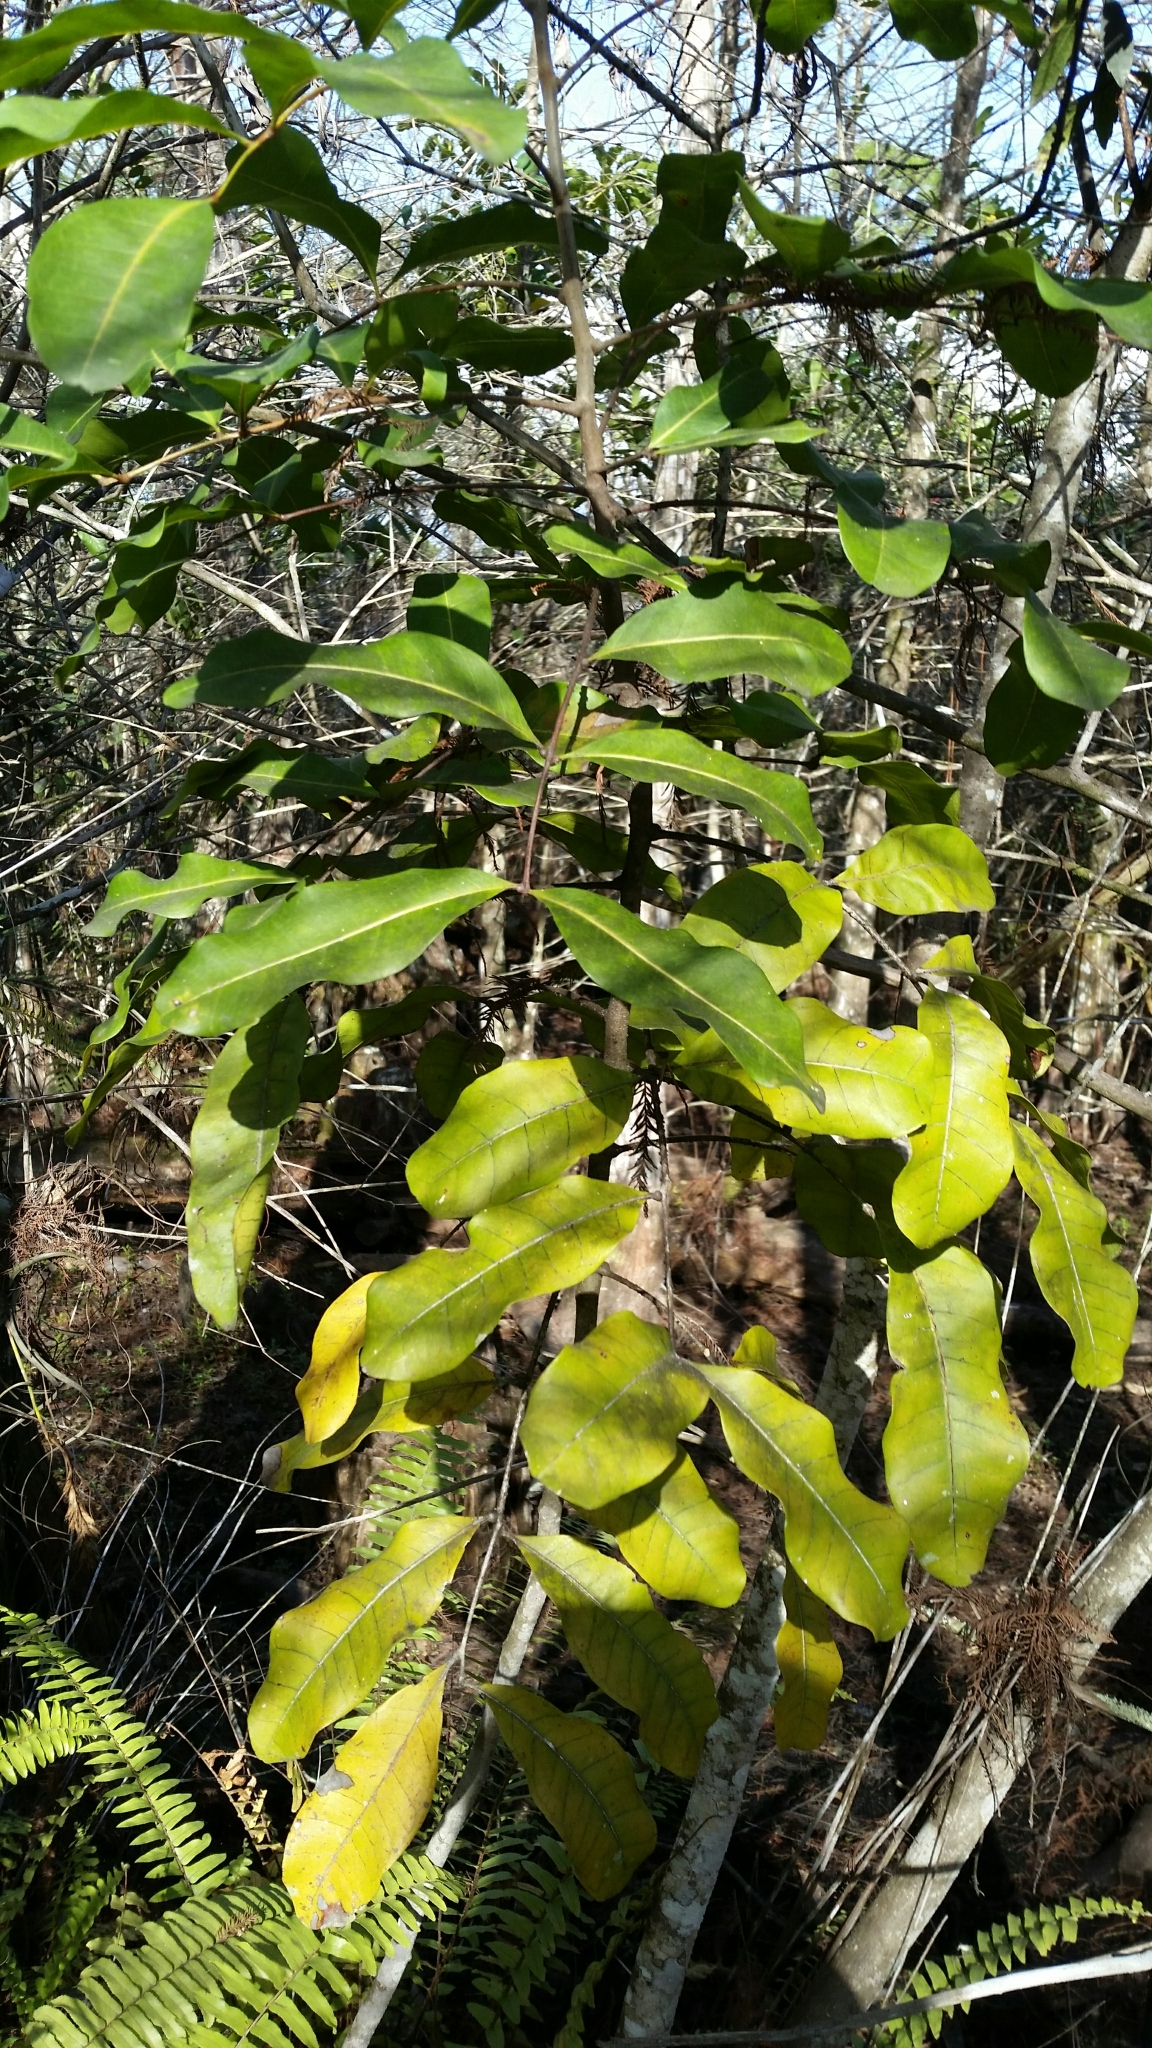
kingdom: Plantae
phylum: Tracheophyta
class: Magnoliopsida
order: Sapindales
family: Sapindaceae
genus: Cupaniopsis
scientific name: Cupaniopsis anacardioides
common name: Carrotwood
